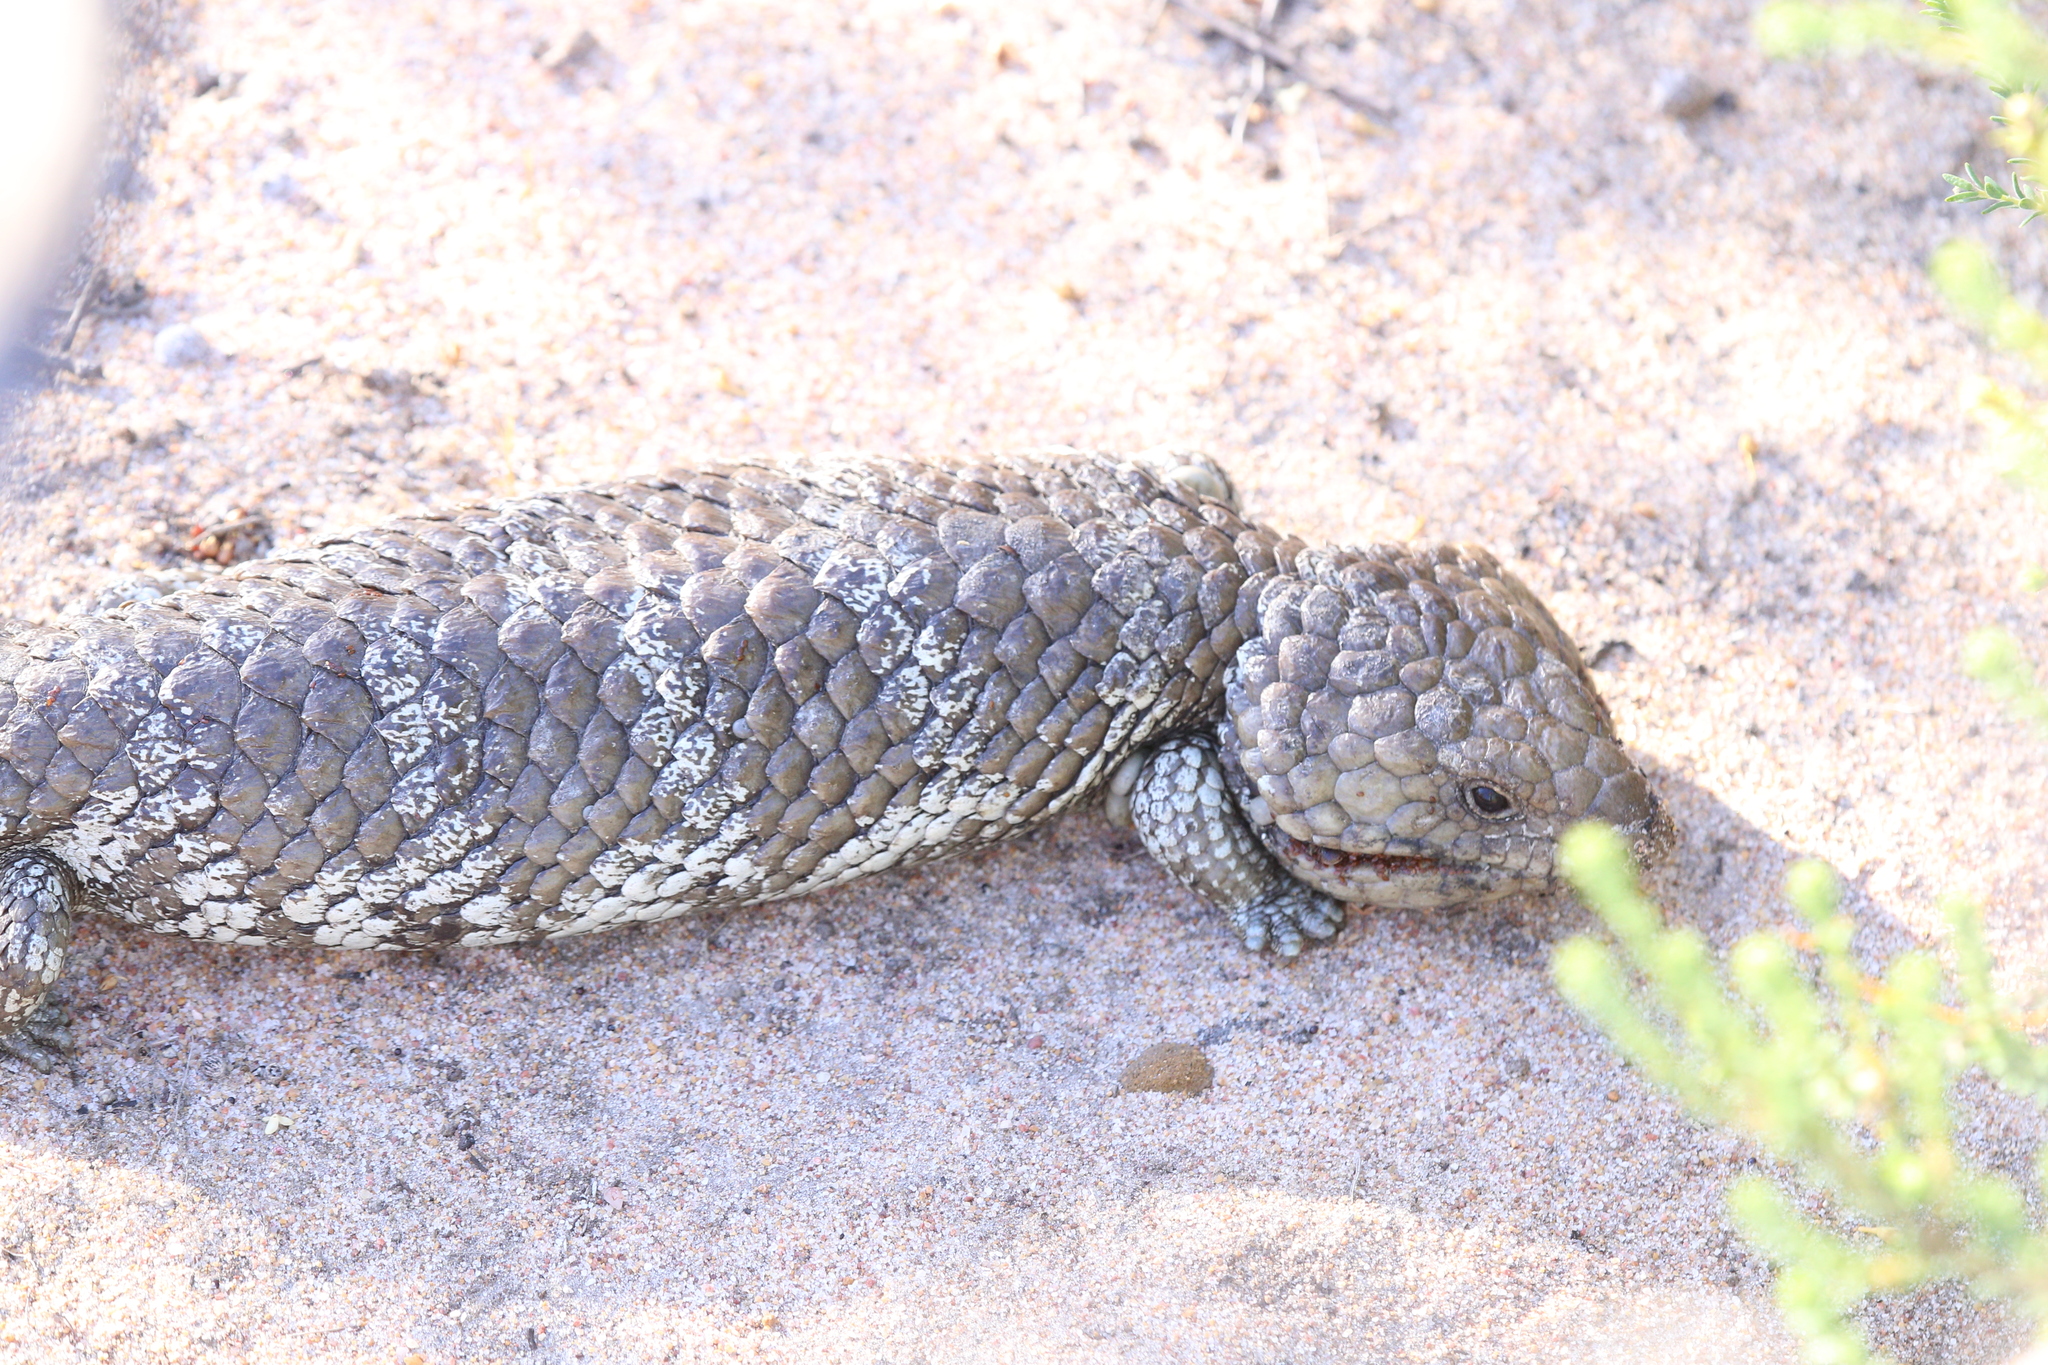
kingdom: Animalia
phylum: Chordata
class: Squamata
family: Scincidae
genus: Tiliqua
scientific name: Tiliqua rugosa
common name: Pinecone lizard
